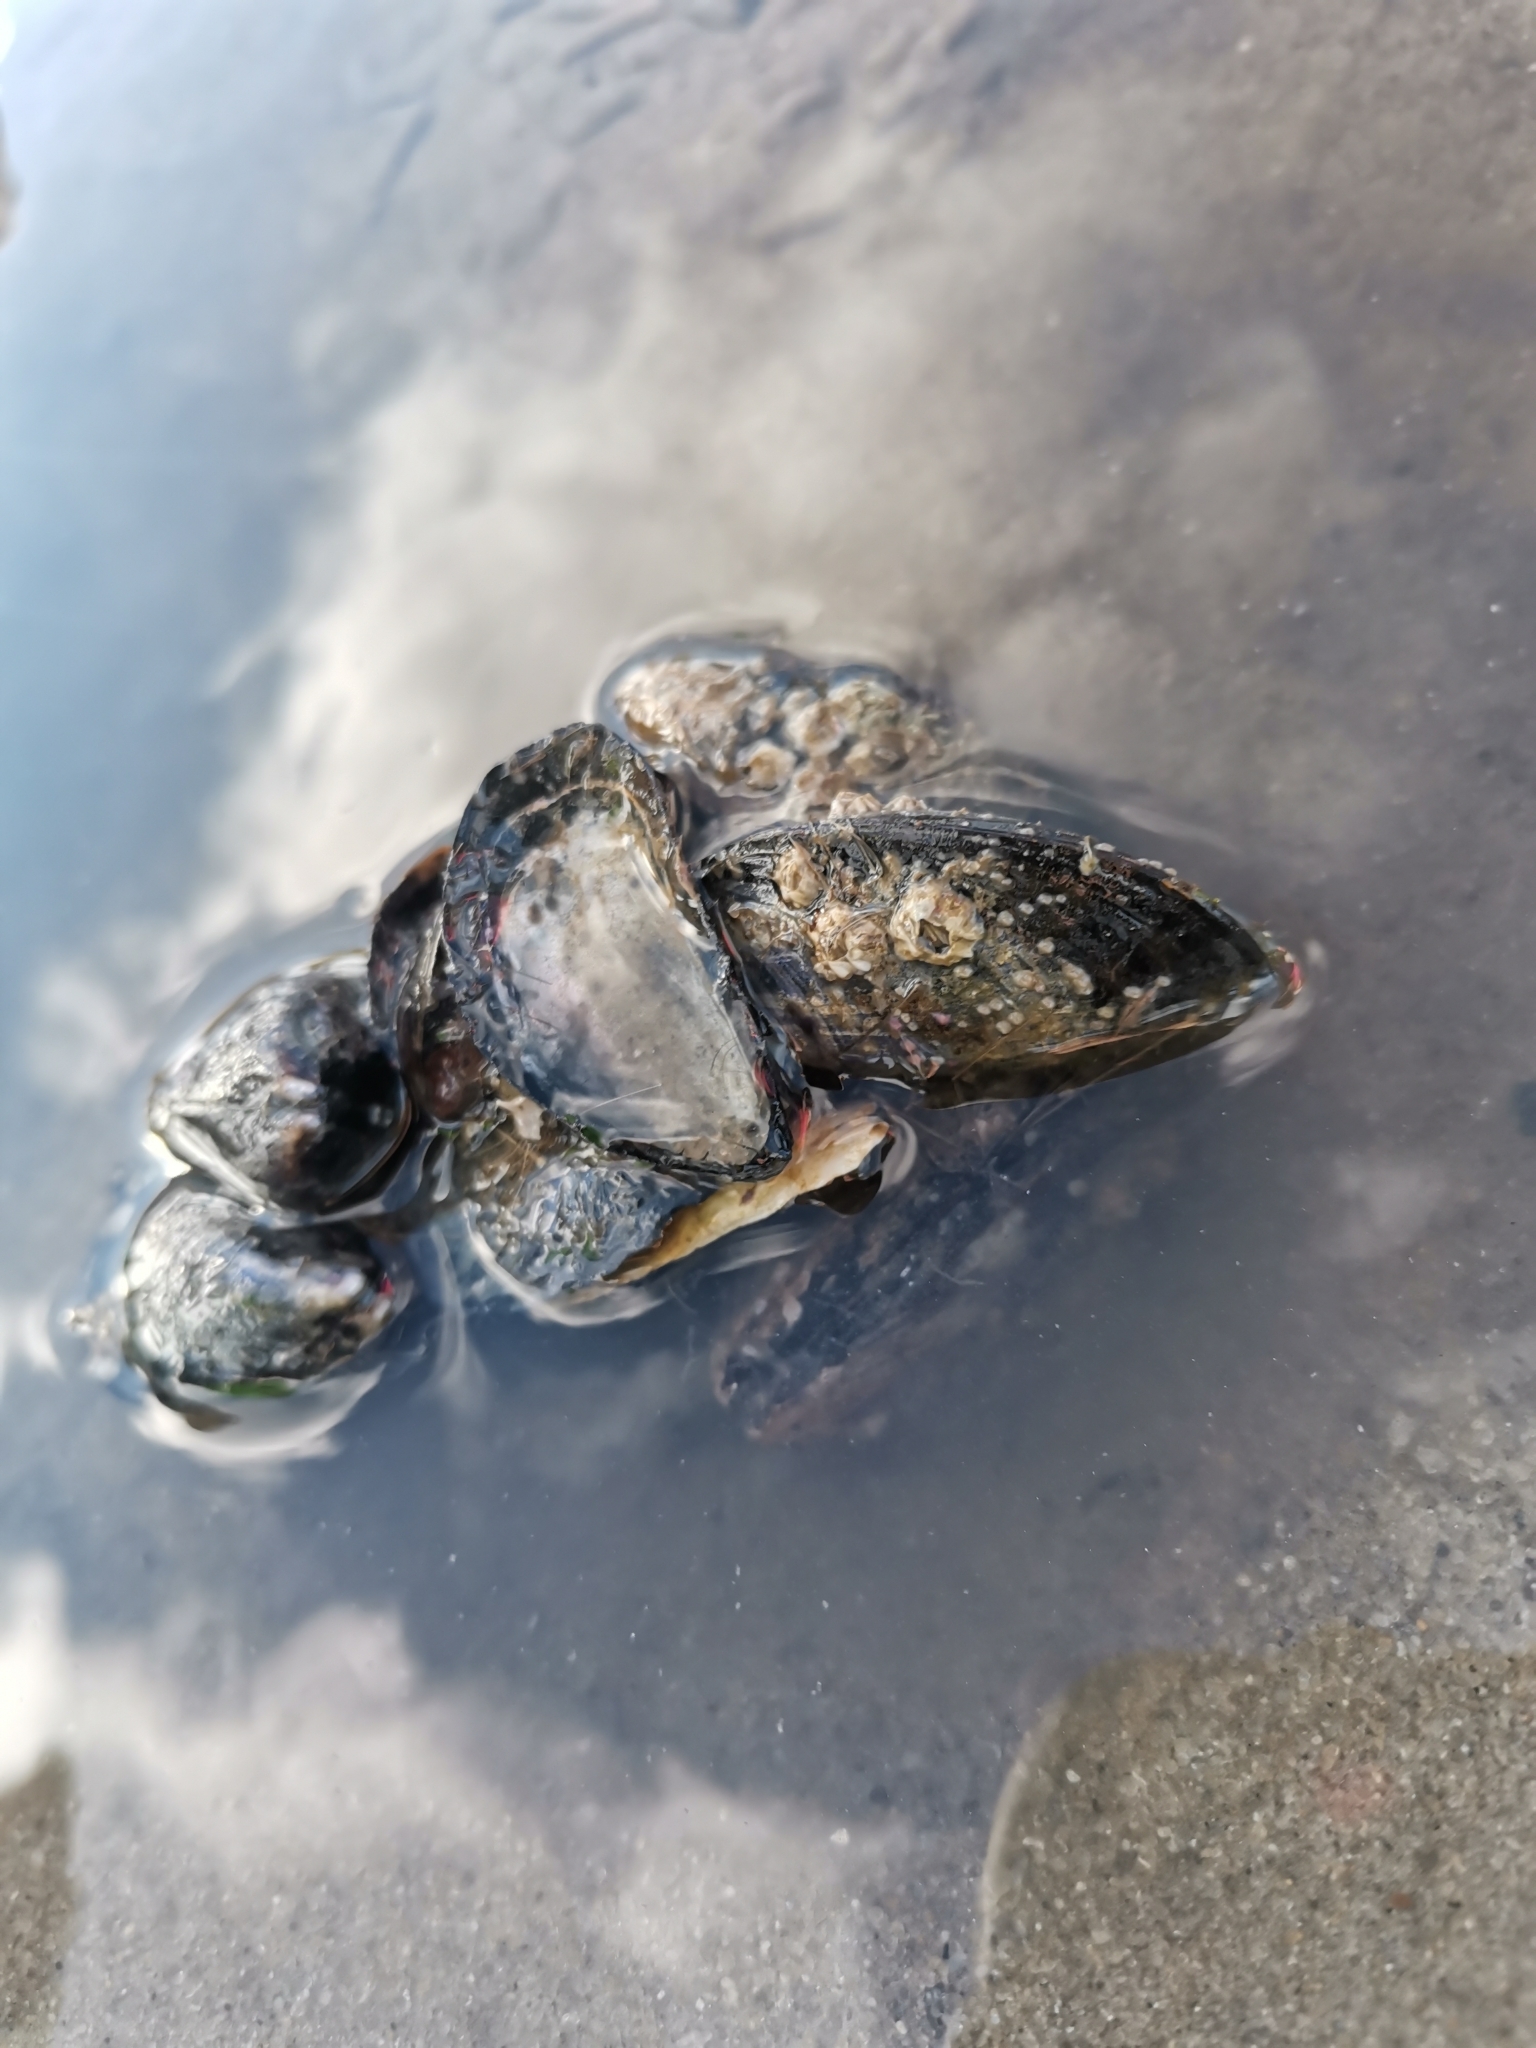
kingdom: Animalia
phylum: Mollusca
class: Bivalvia
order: Mytilida
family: Mytilidae
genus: Mytilus
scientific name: Mytilus edulis
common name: Blue mussel
